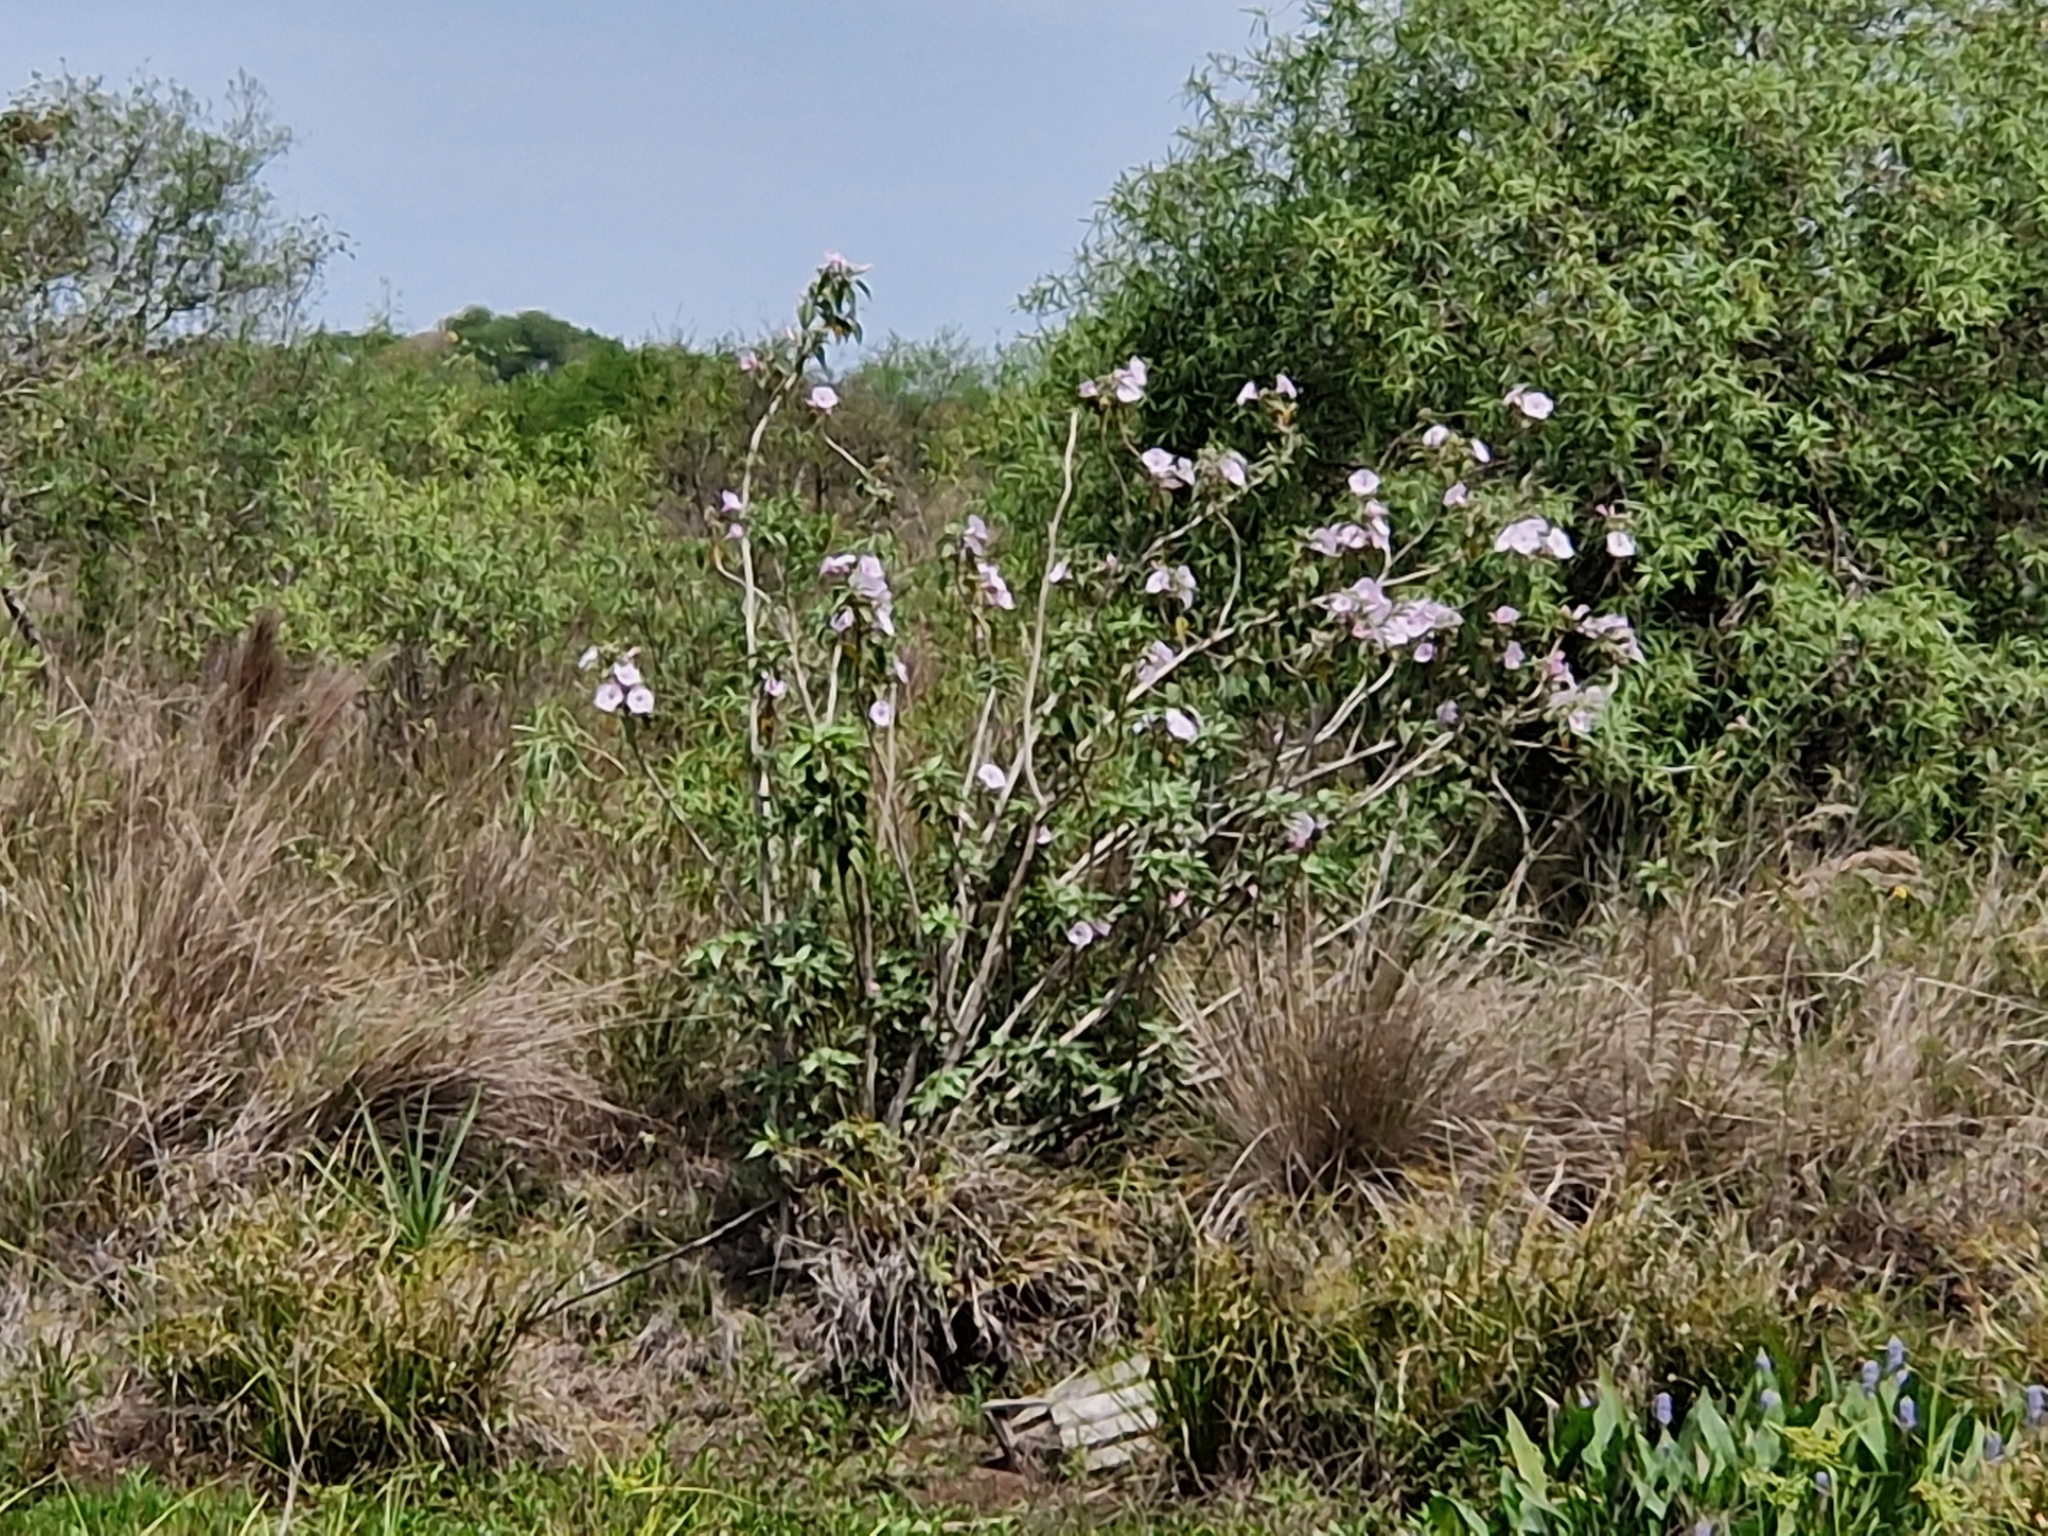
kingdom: Plantae
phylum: Tracheophyta
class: Magnoliopsida
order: Solanales
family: Convolvulaceae
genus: Ipomoea
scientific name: Ipomoea carnea
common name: Morning-glory
